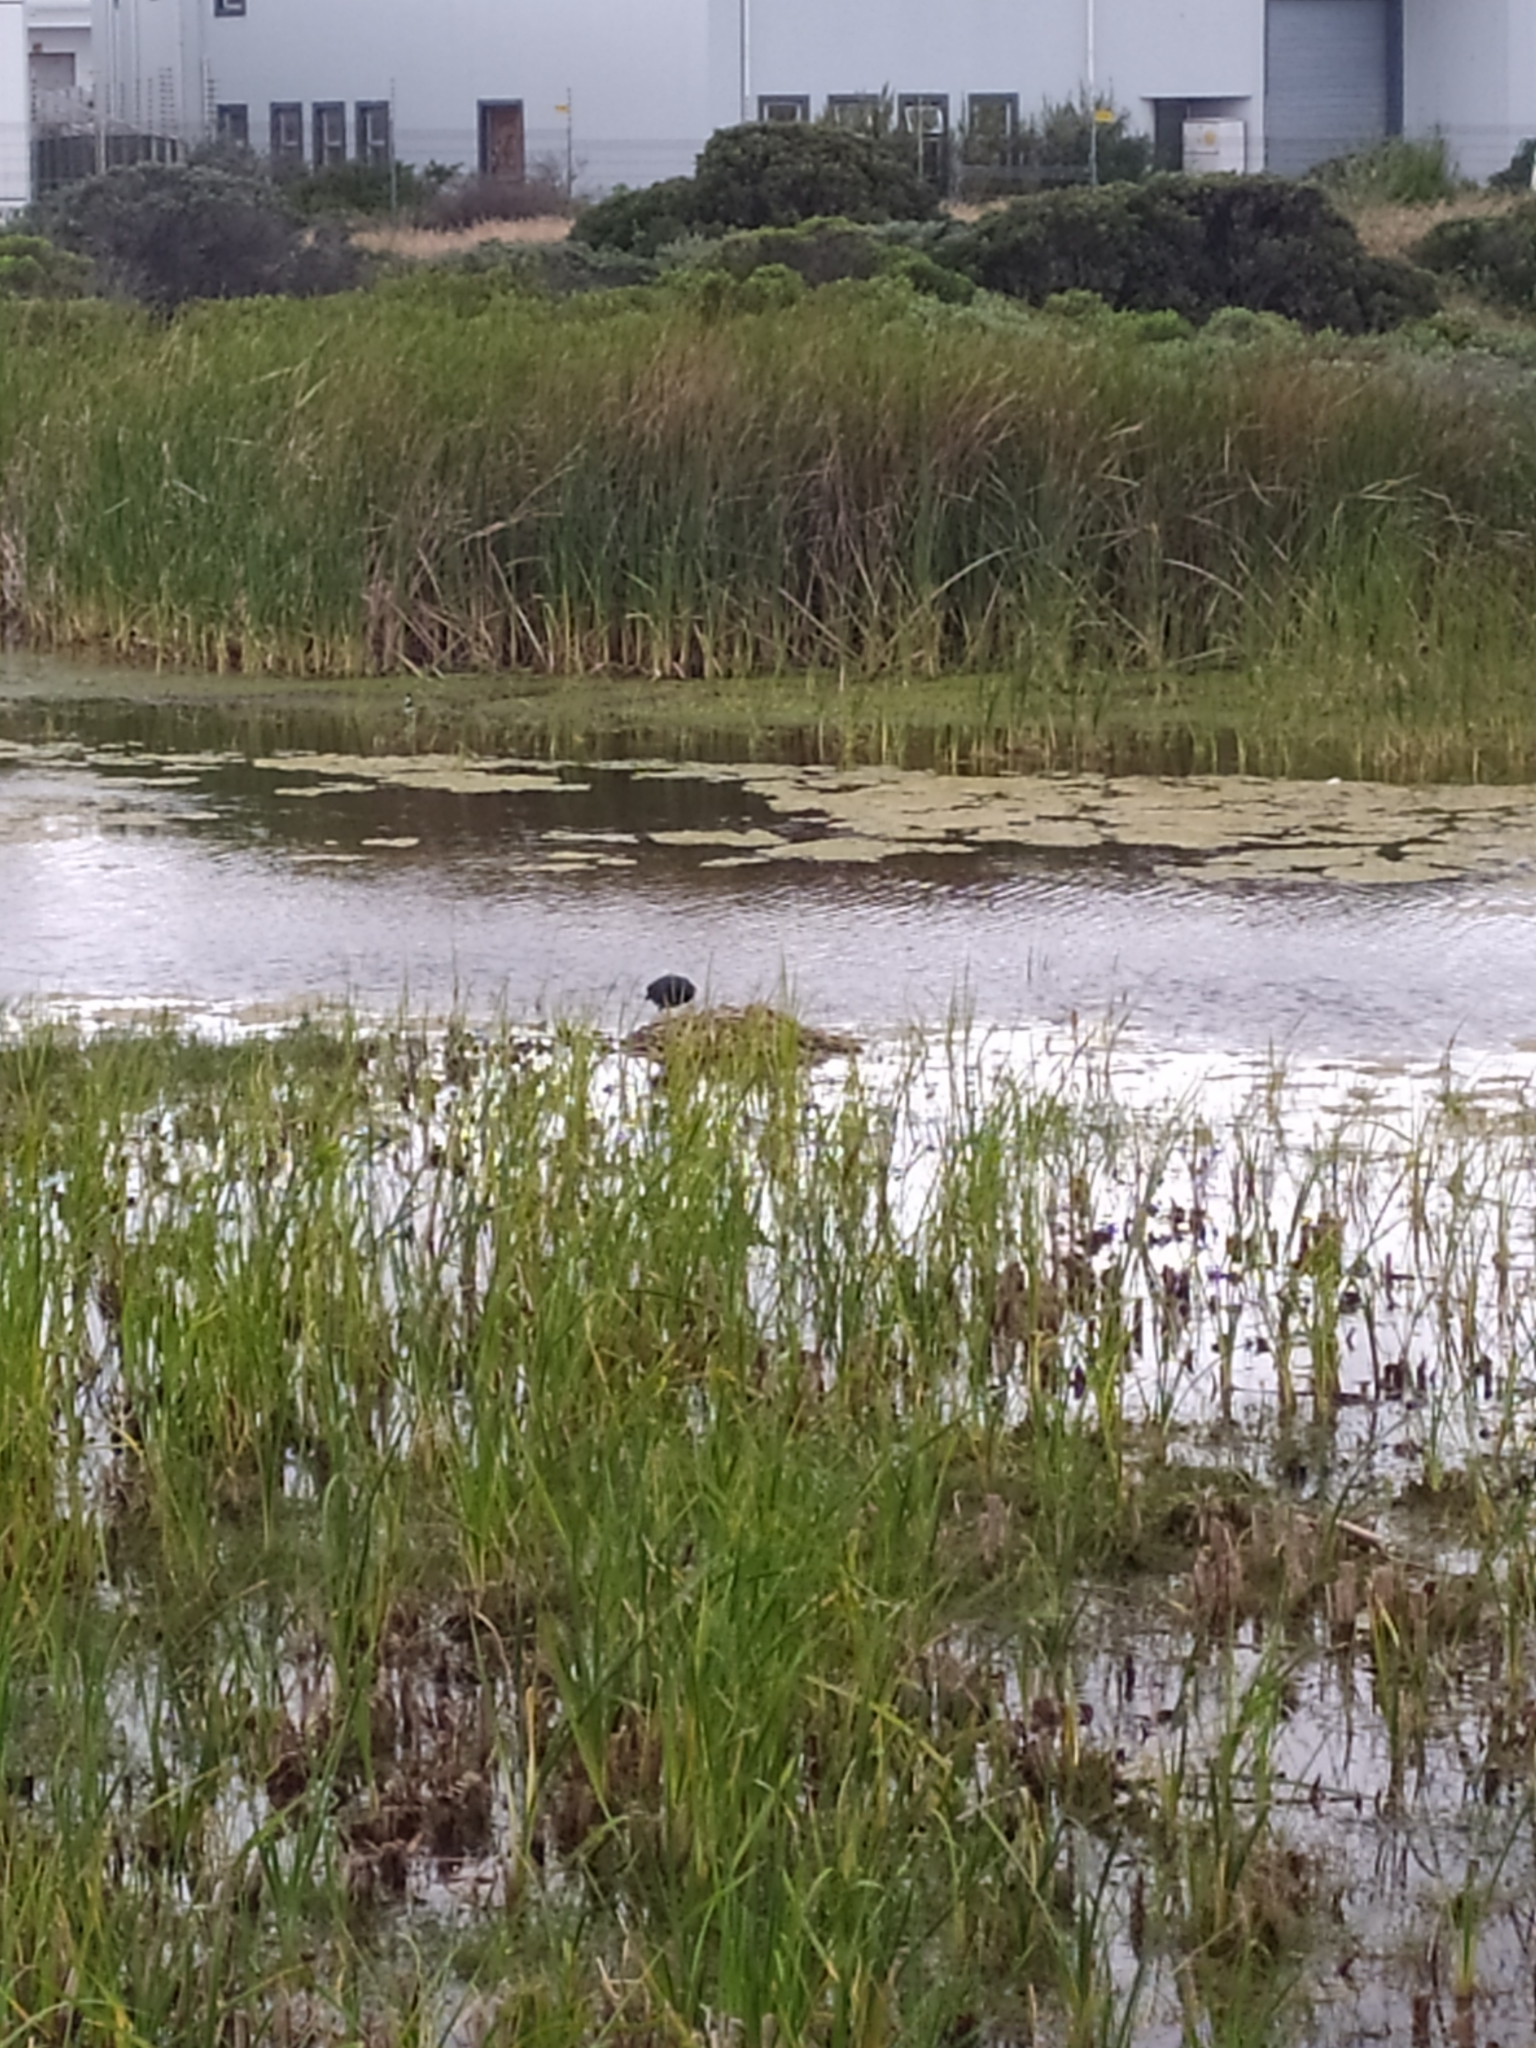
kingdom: Animalia
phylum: Chordata
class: Aves
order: Gruiformes
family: Rallidae
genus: Fulica
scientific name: Fulica cristata
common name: Red-knobbed coot
